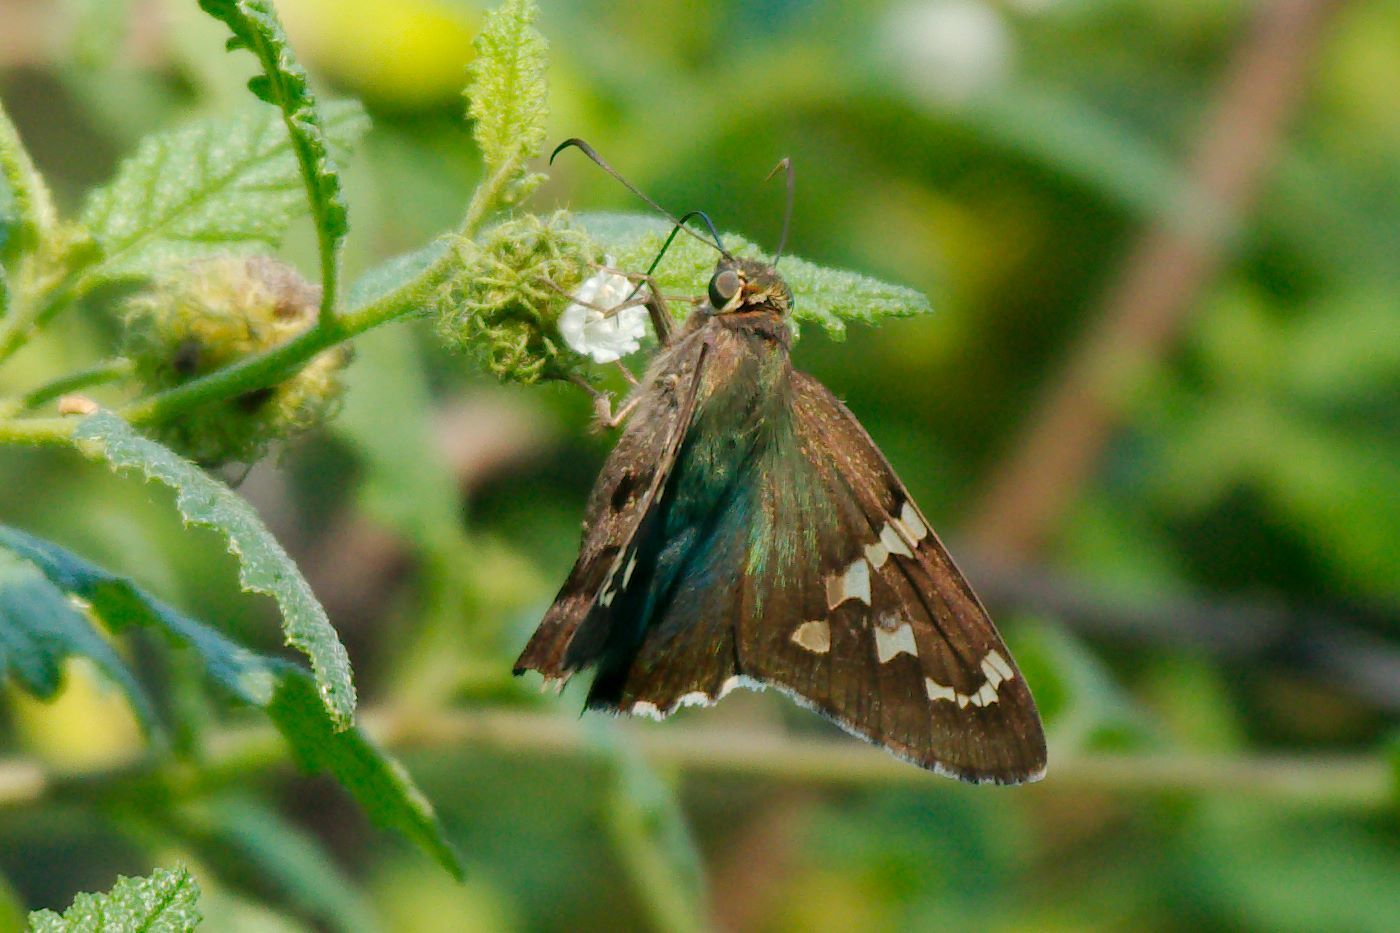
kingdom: Animalia
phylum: Arthropoda
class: Insecta
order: Lepidoptera
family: Hesperiidae
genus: Urbanus
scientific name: Urbanus proteus
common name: Long-tailed skipper
